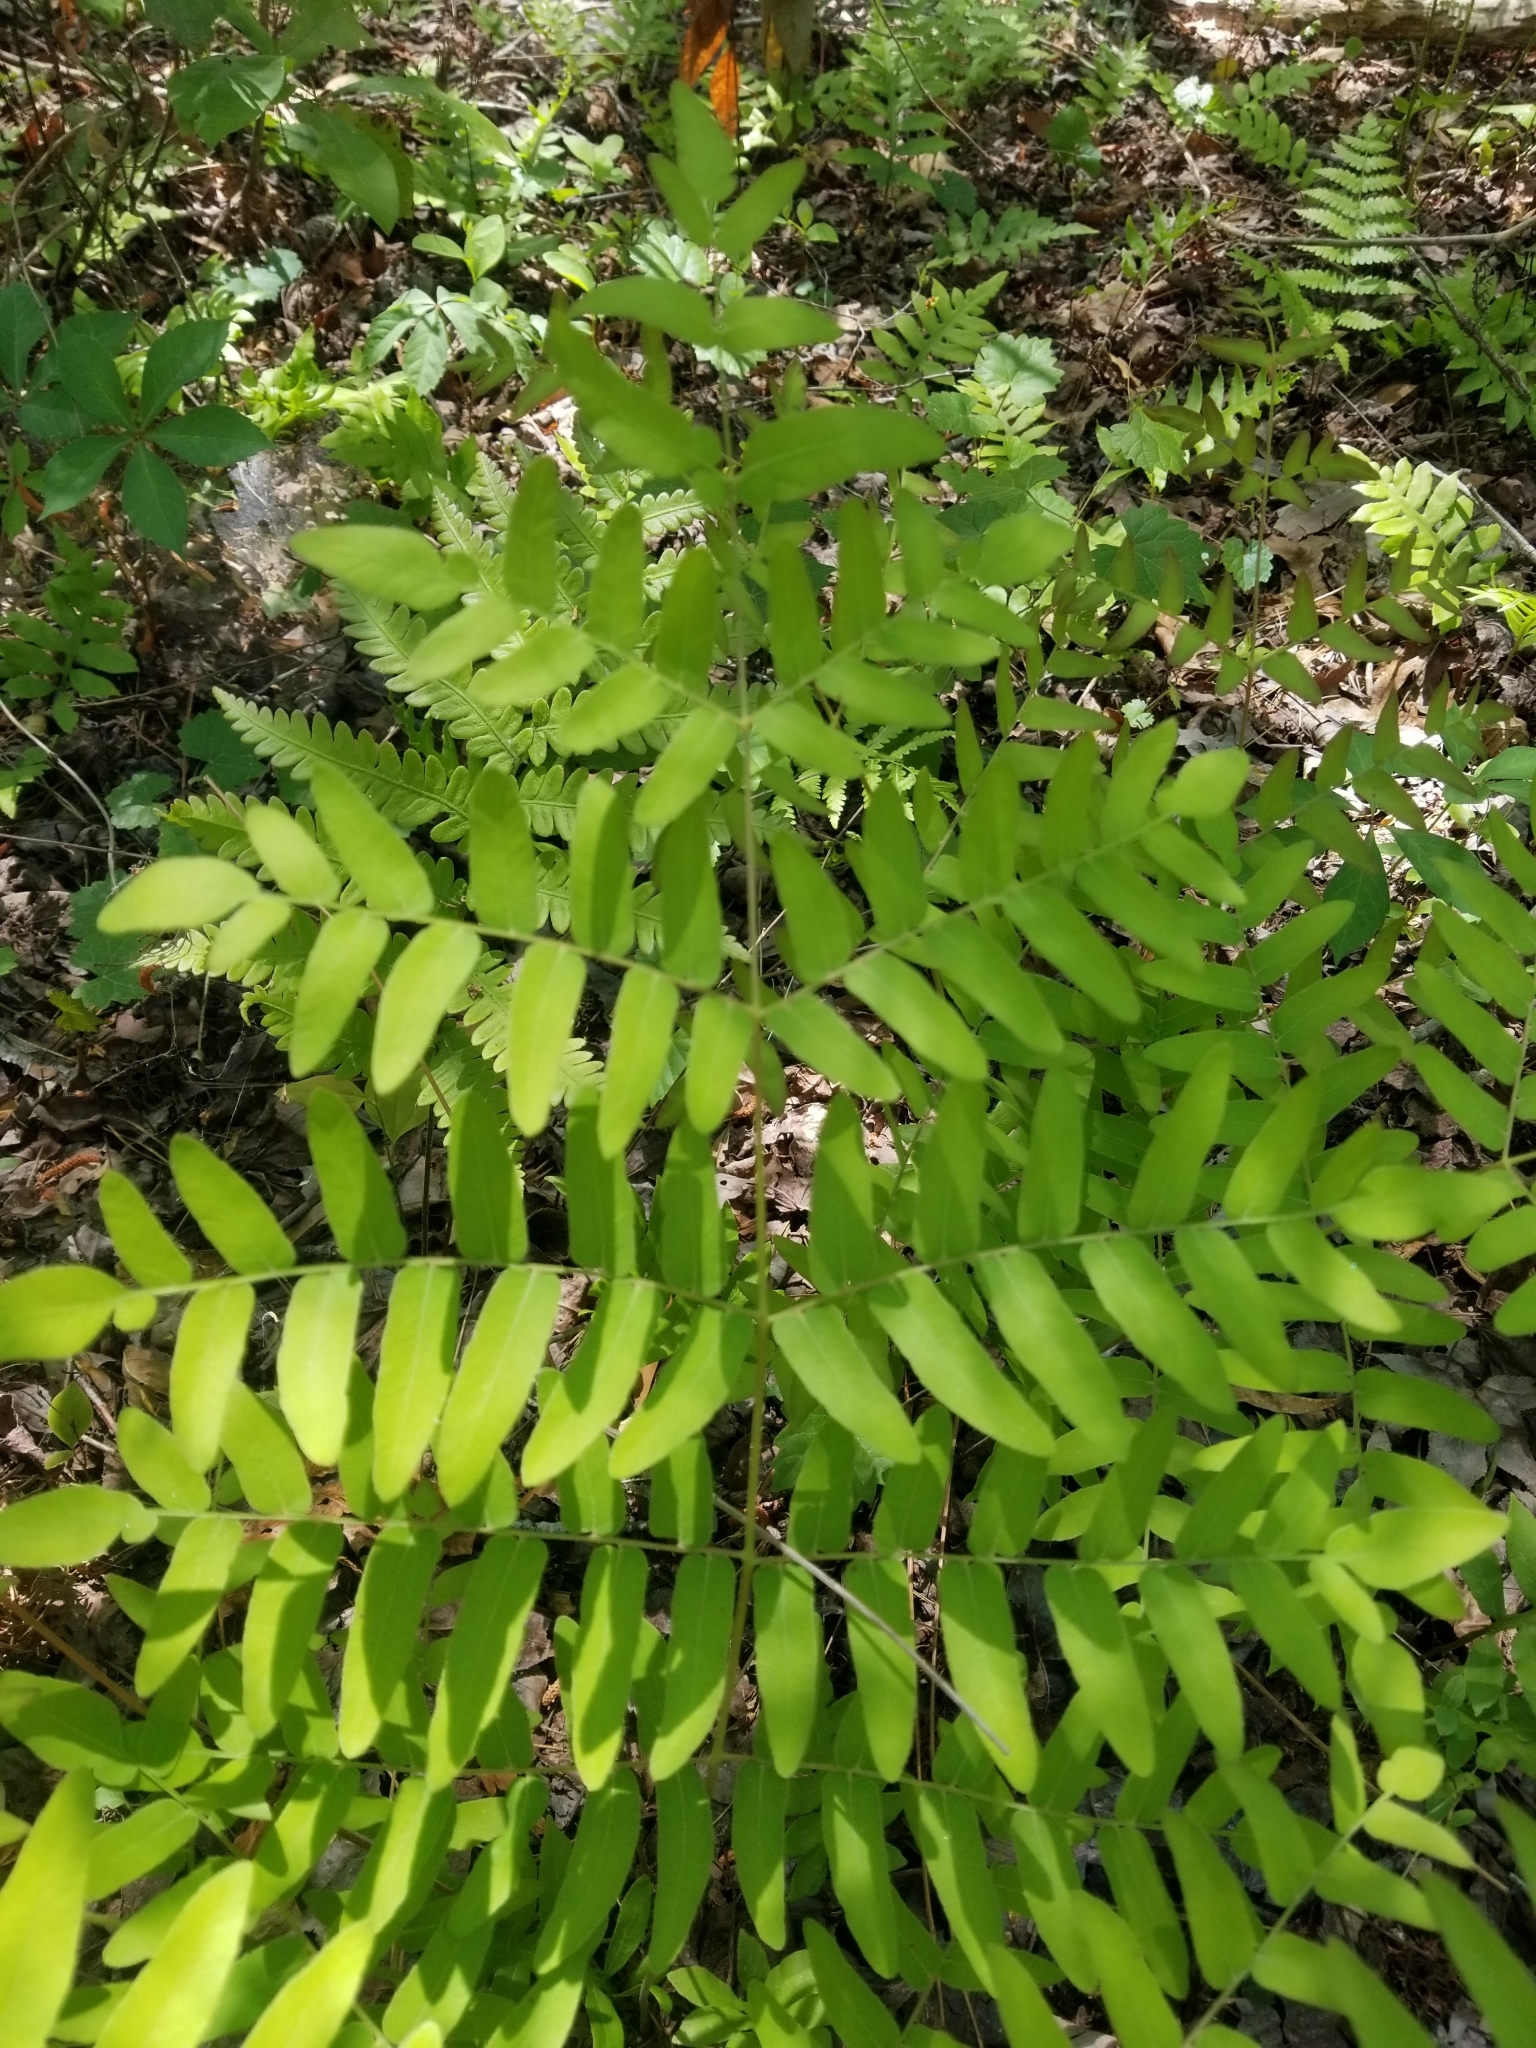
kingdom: Plantae
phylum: Tracheophyta
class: Polypodiopsida
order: Osmundales
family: Osmundaceae
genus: Osmunda
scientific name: Osmunda spectabilis
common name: American royal fern
